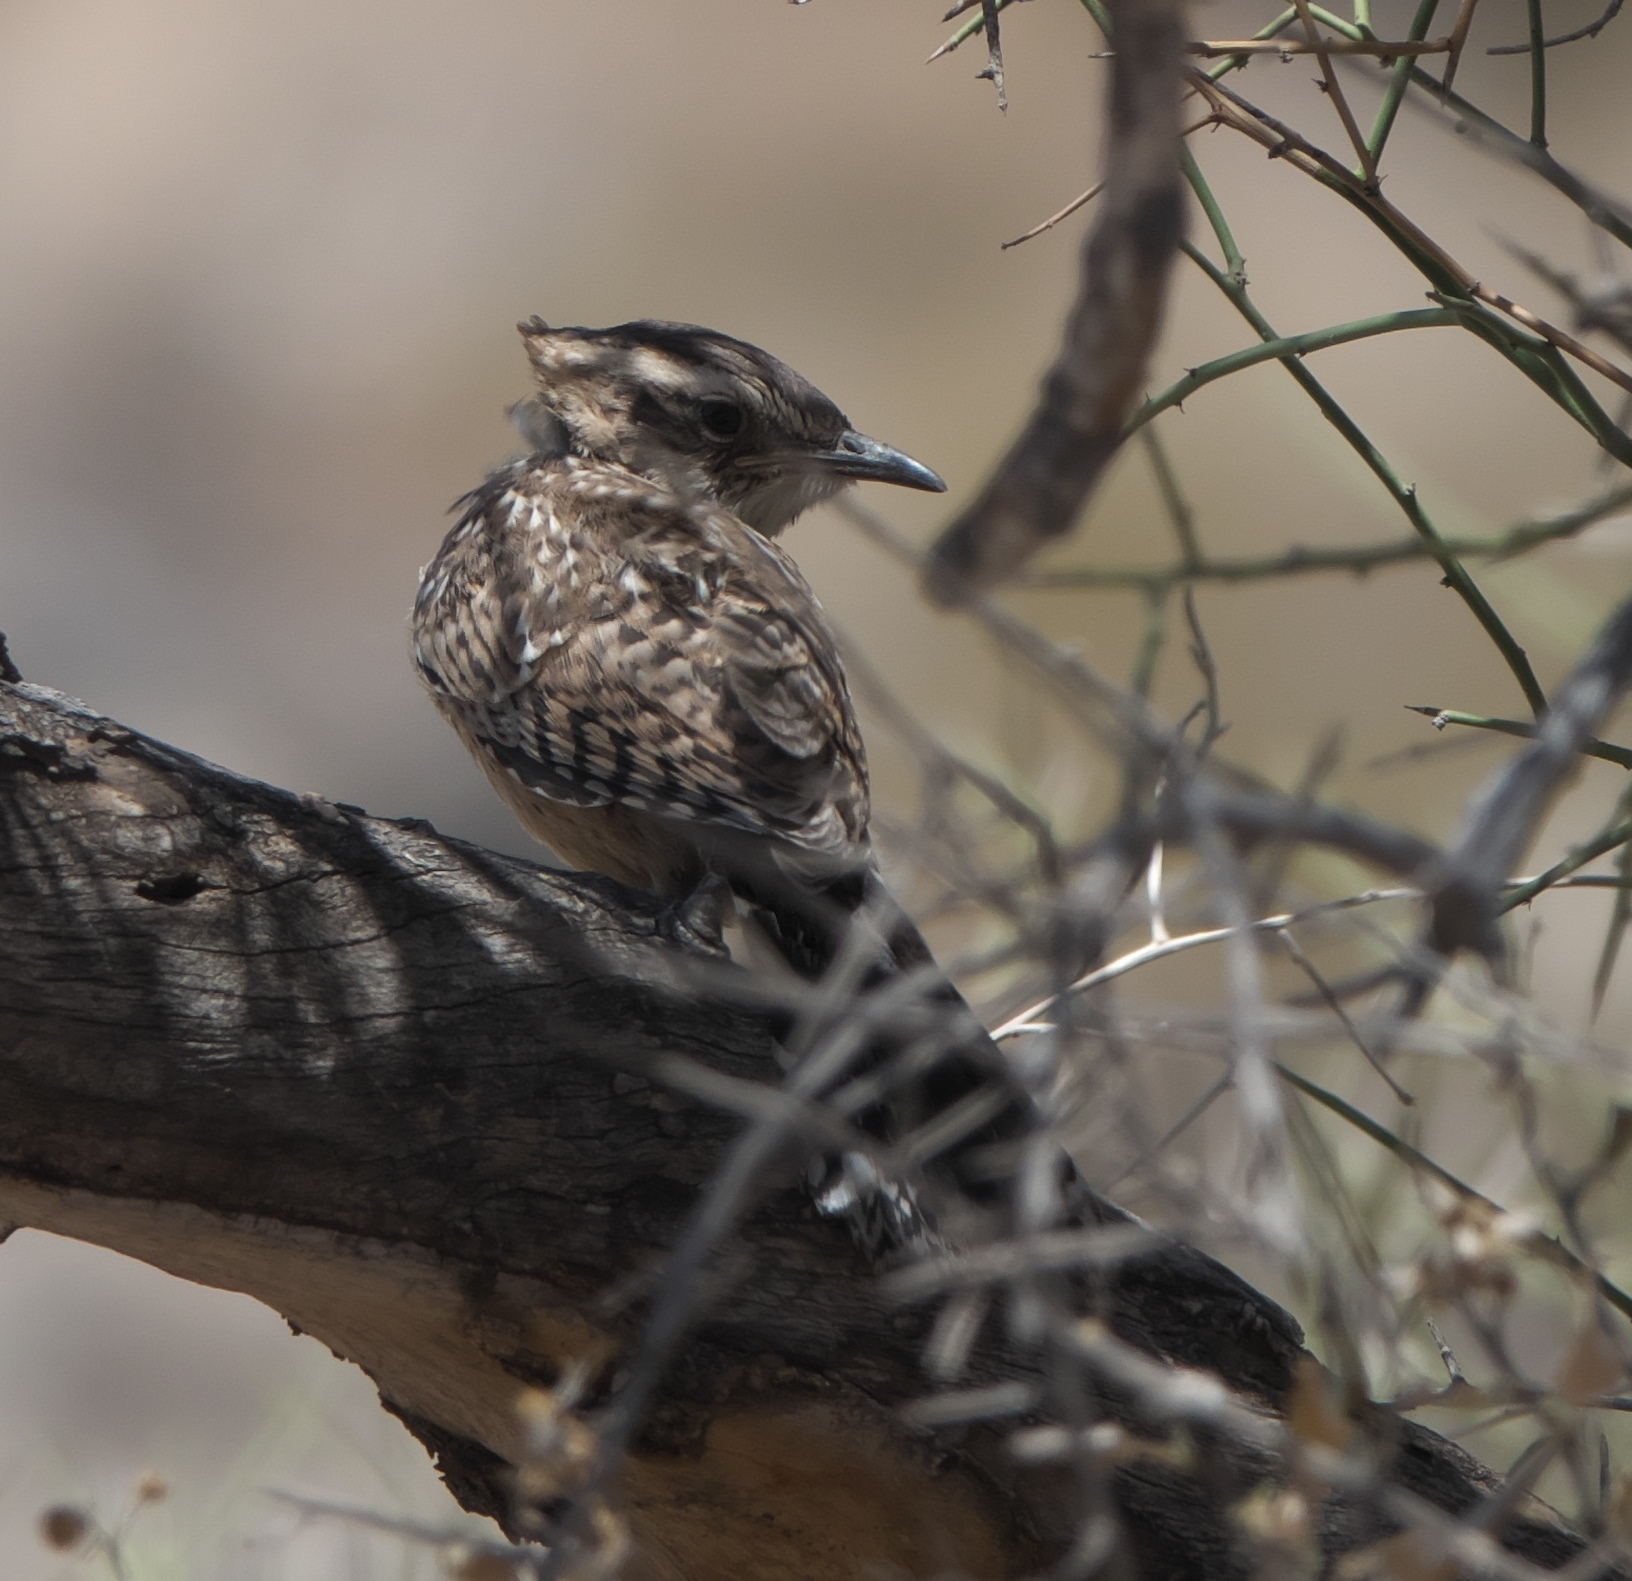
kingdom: Animalia
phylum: Chordata
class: Aves
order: Passeriformes
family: Troglodytidae
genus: Campylorhynchus
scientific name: Campylorhynchus brunneicapillus
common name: Cactus wren
